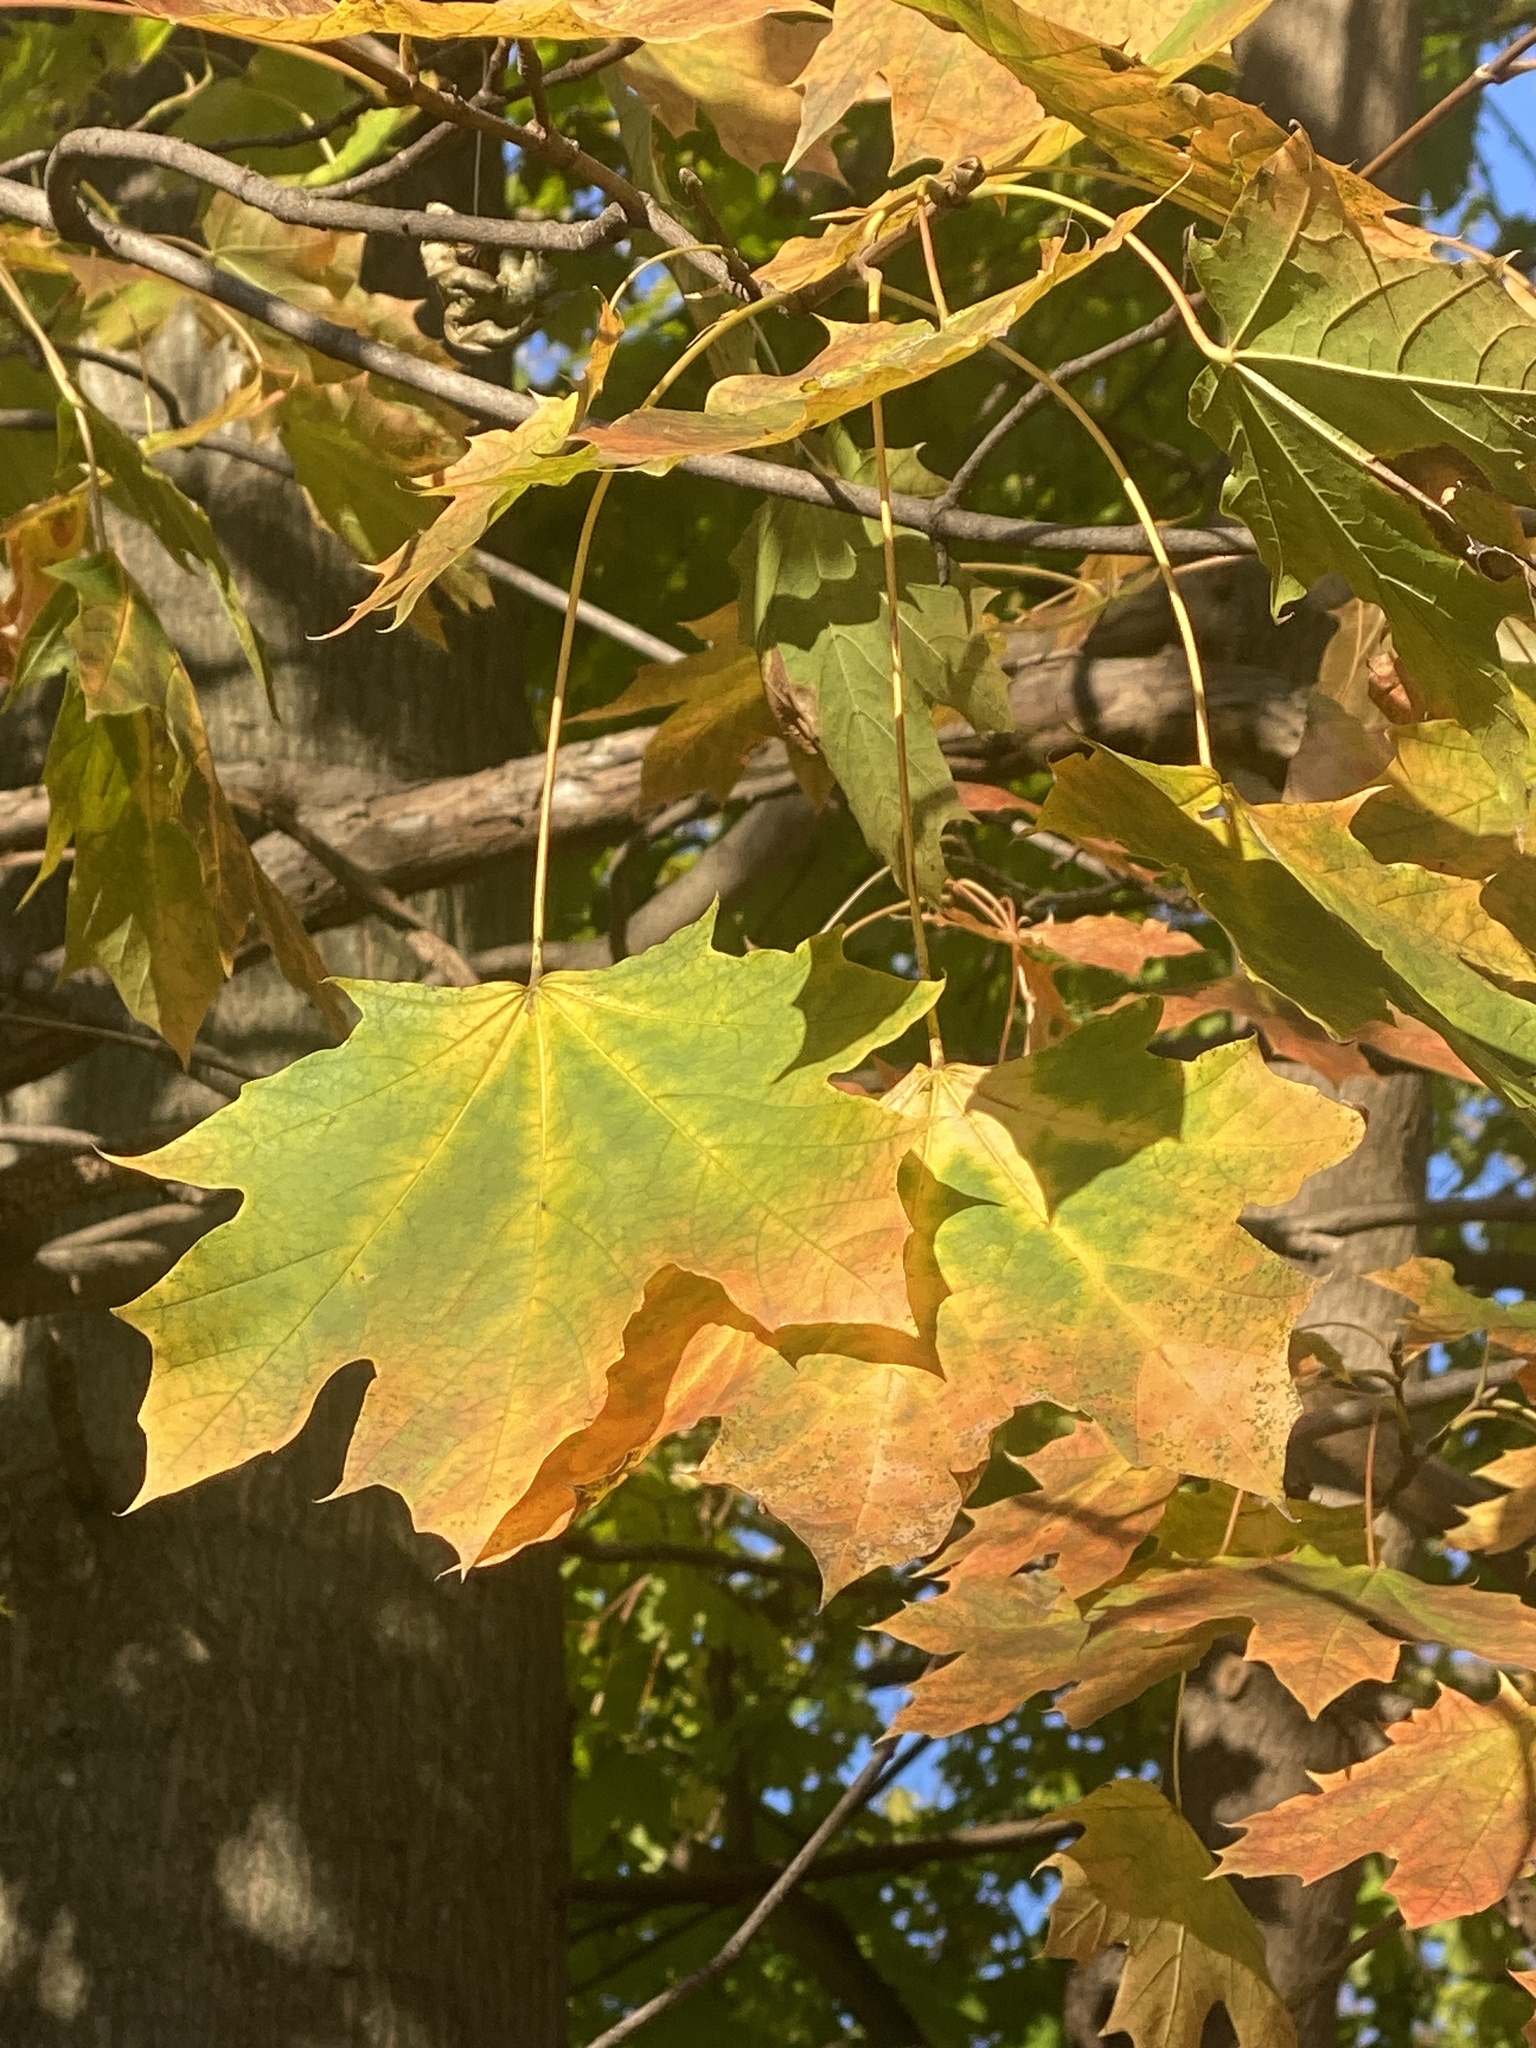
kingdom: Plantae
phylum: Tracheophyta
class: Magnoliopsida
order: Sapindales
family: Sapindaceae
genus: Acer
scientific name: Acer platanoides
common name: Norway maple
